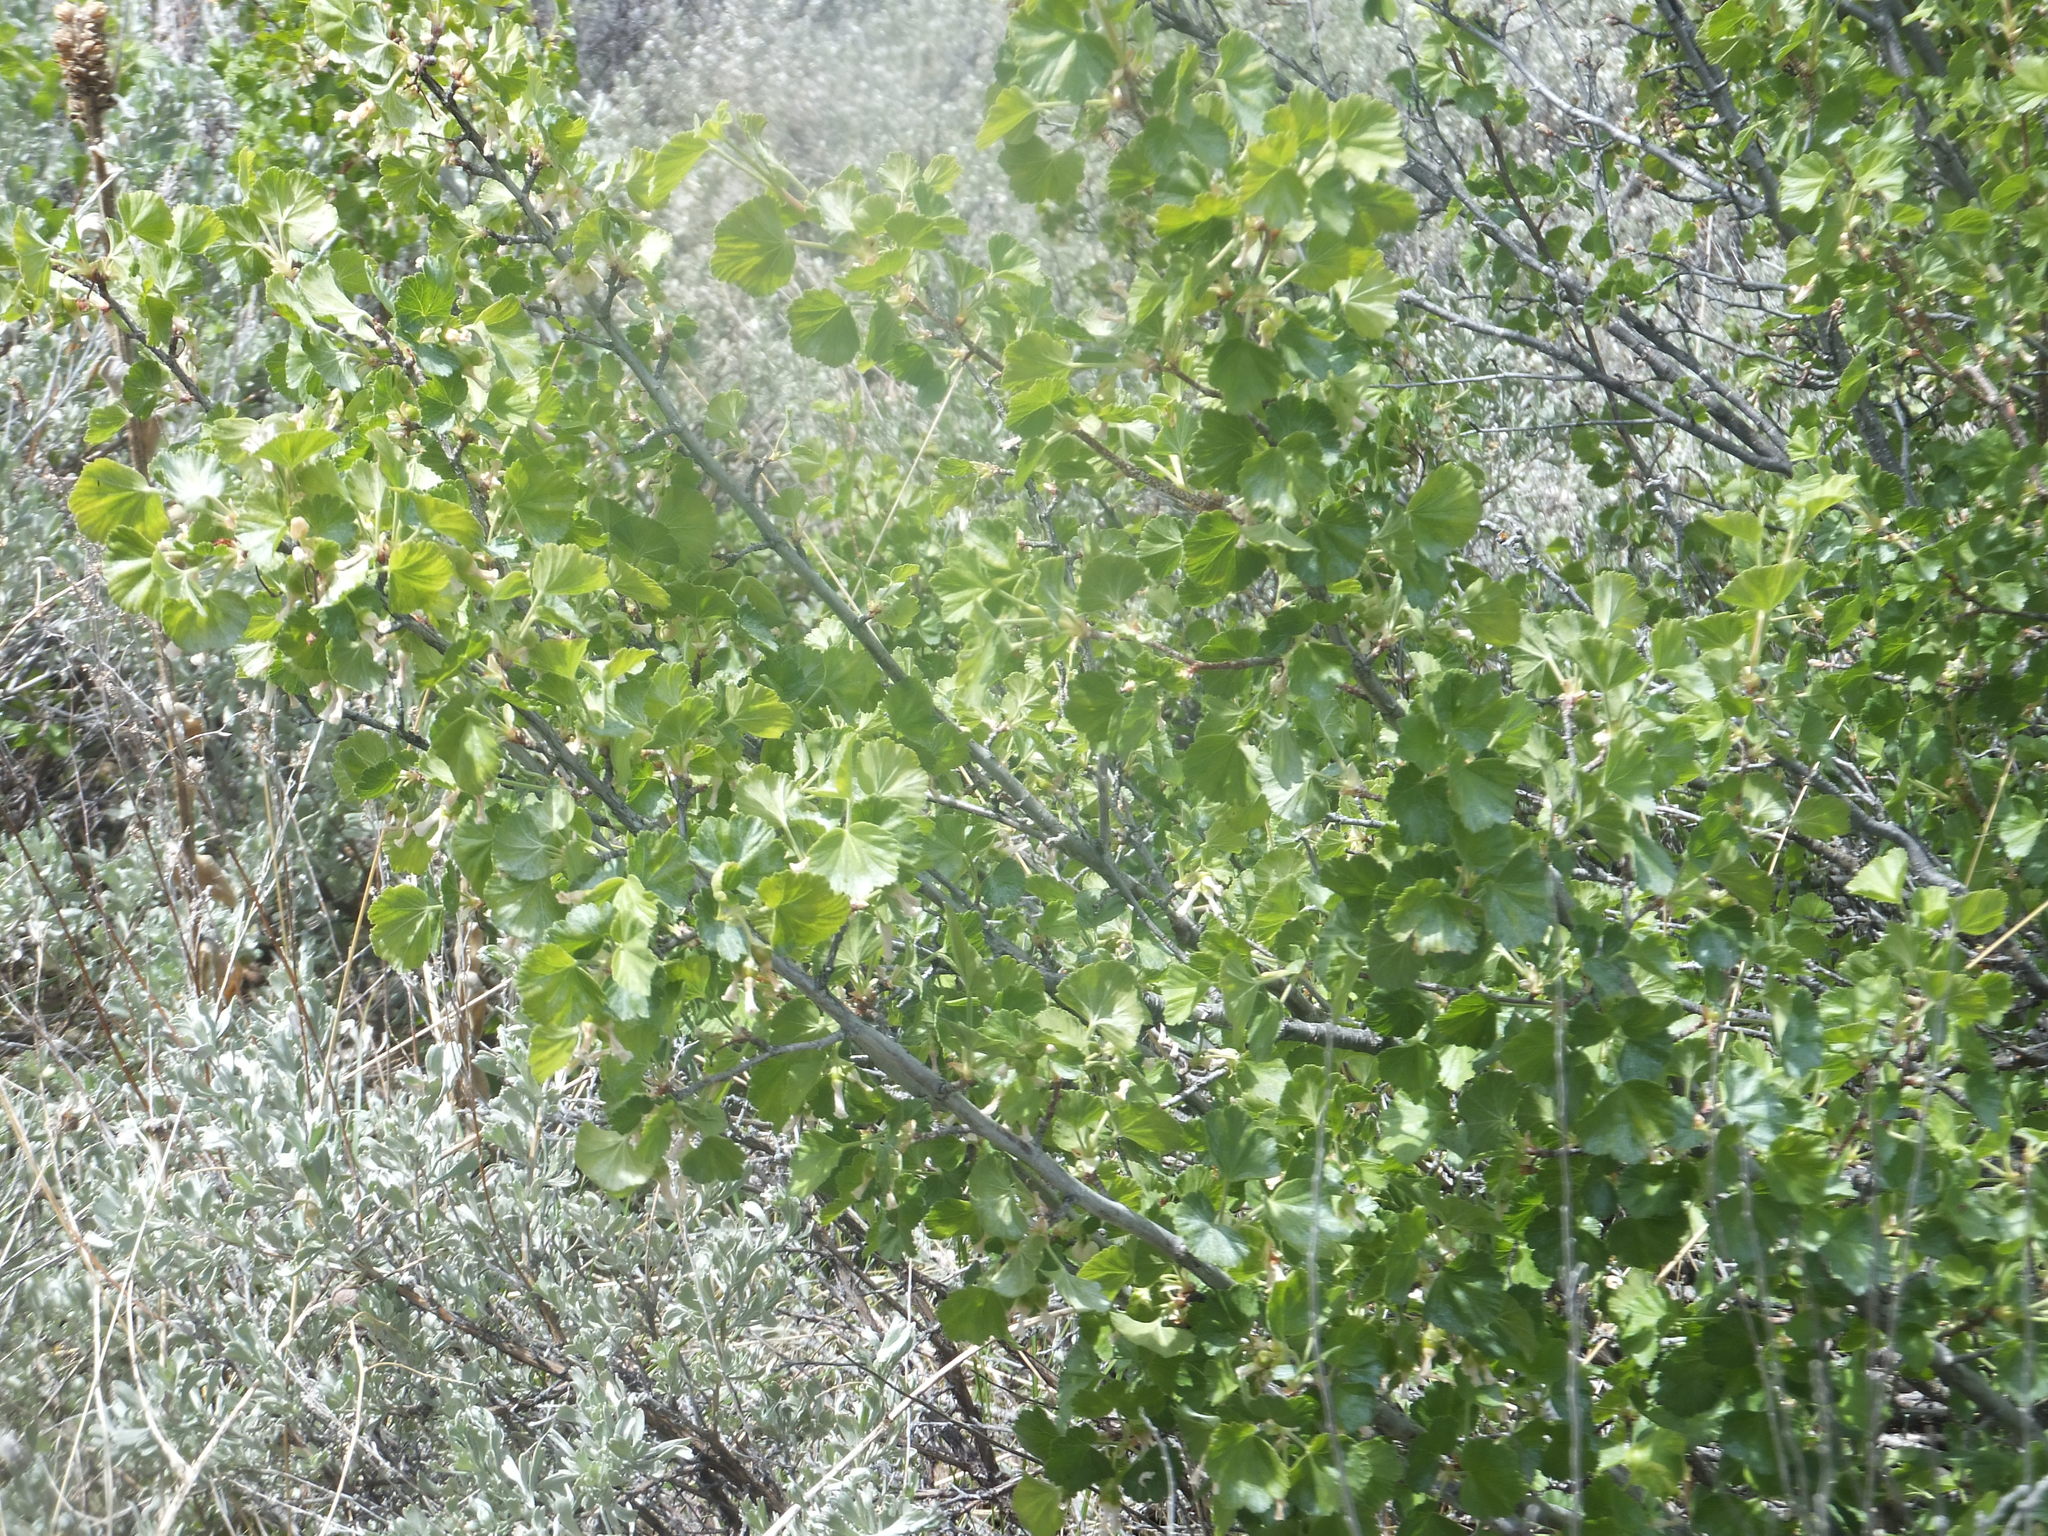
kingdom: Plantae
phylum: Tracheophyta
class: Magnoliopsida
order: Saxifragales
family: Grossulariaceae
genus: Ribes
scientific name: Ribes cereum
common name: Wax currant
